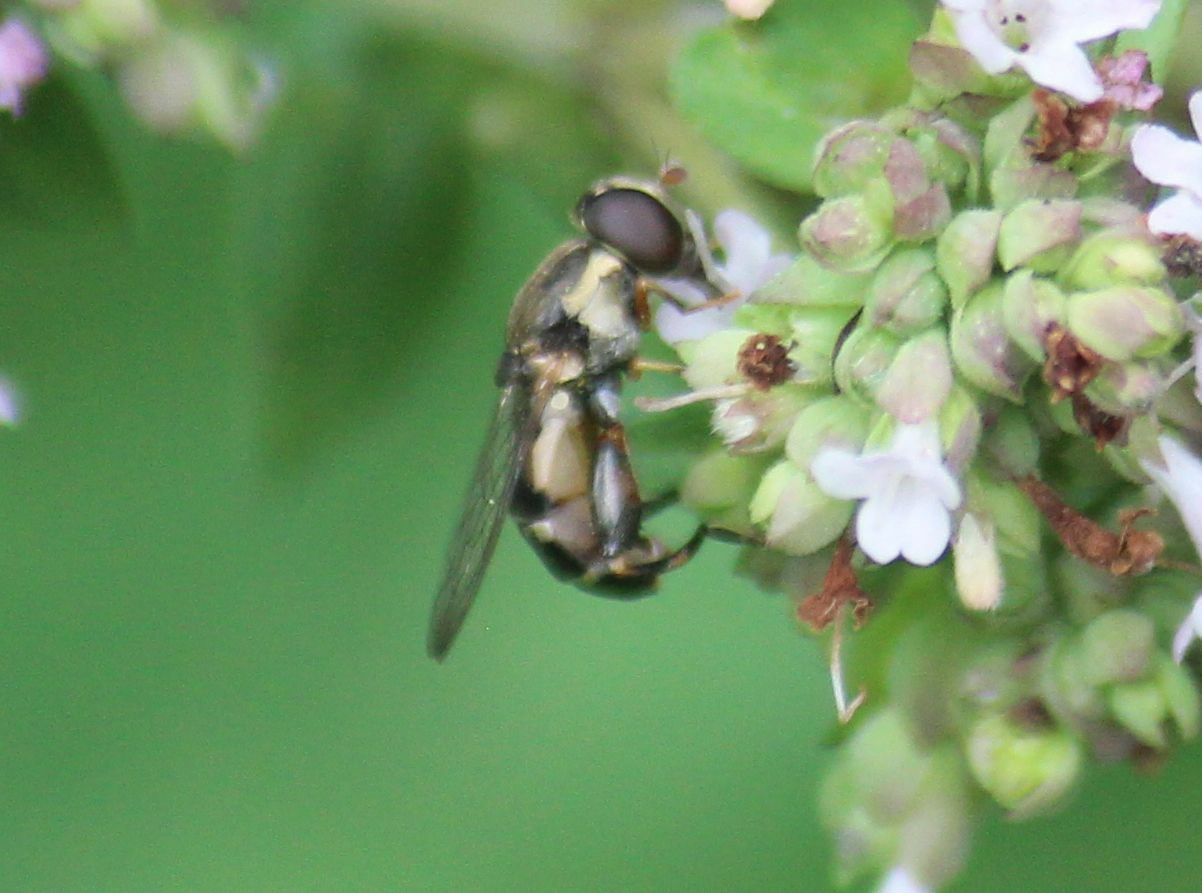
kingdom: Animalia
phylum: Arthropoda
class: Insecta
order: Diptera
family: Syrphidae
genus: Syritta
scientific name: Syritta pipiens
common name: Hover fly
